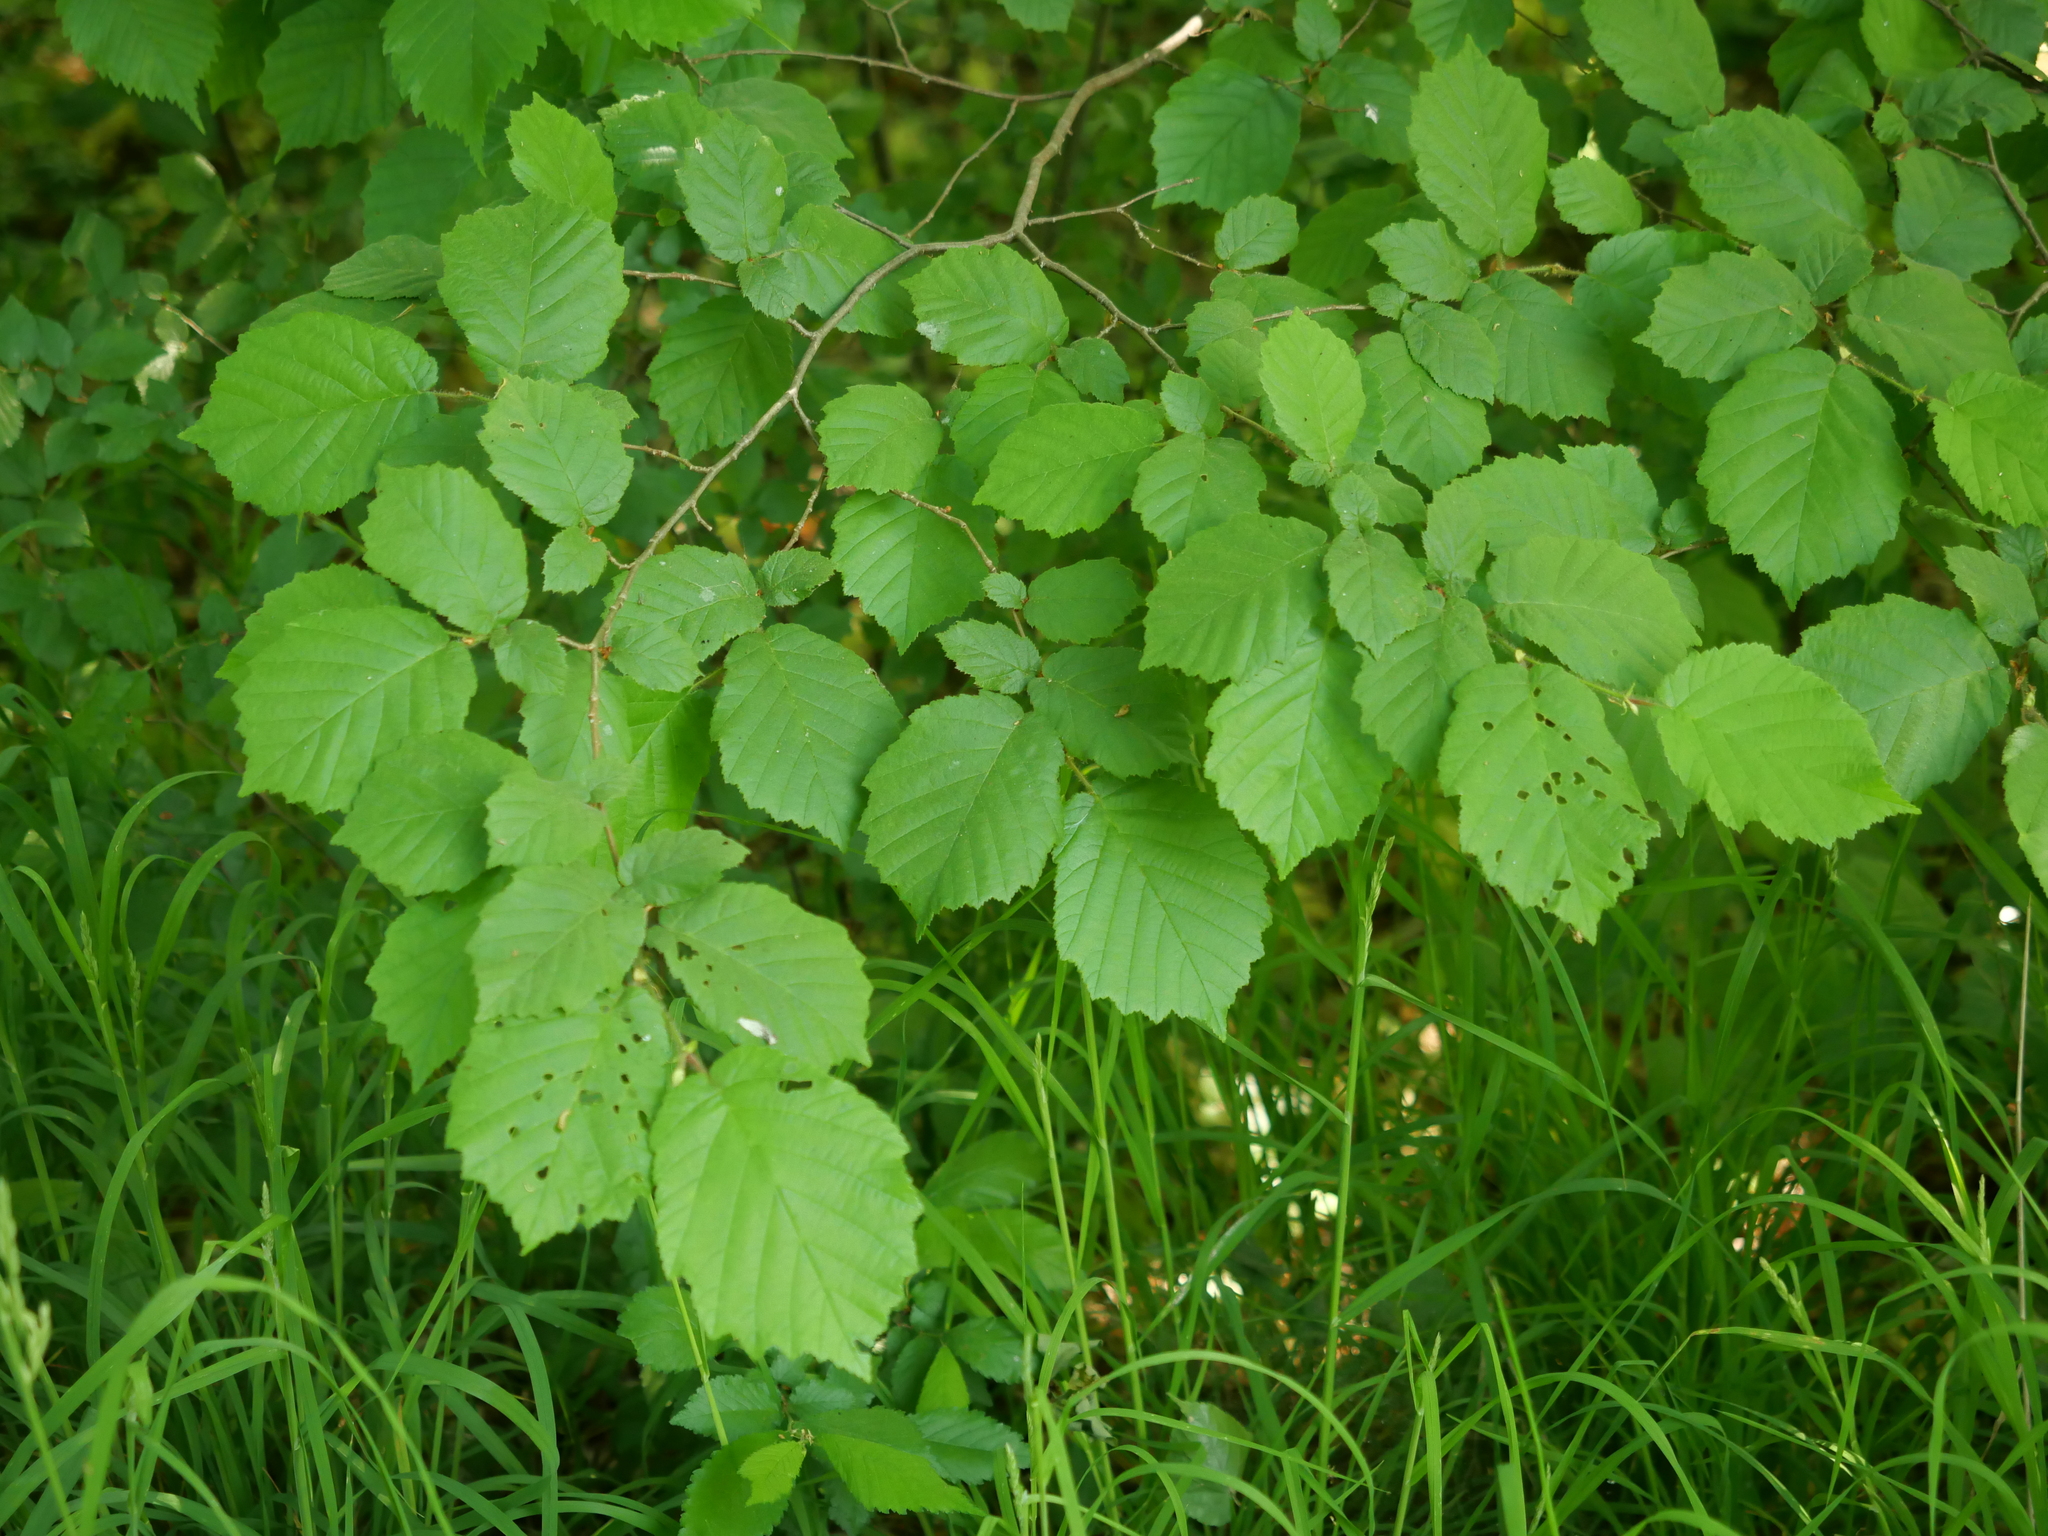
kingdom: Plantae
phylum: Tracheophyta
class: Magnoliopsida
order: Fagales
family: Betulaceae
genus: Corylus
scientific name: Corylus avellana
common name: European hazel
